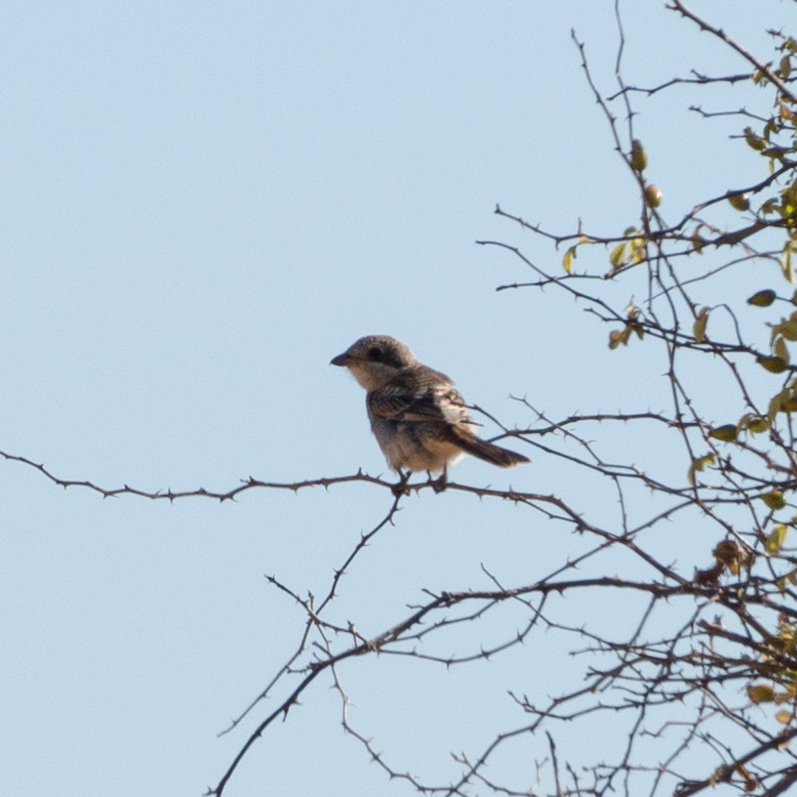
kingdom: Animalia
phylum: Chordata
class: Aves
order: Passeriformes
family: Laniidae
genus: Lanius
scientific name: Lanius senator
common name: Woodchat shrike
